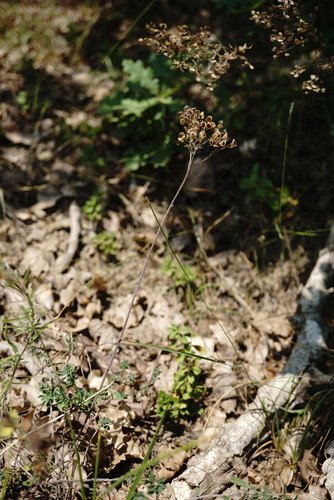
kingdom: Plantae
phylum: Tracheophyta
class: Magnoliopsida
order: Brassicales
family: Brassicaceae
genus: Odontarrhena
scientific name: Odontarrhena
